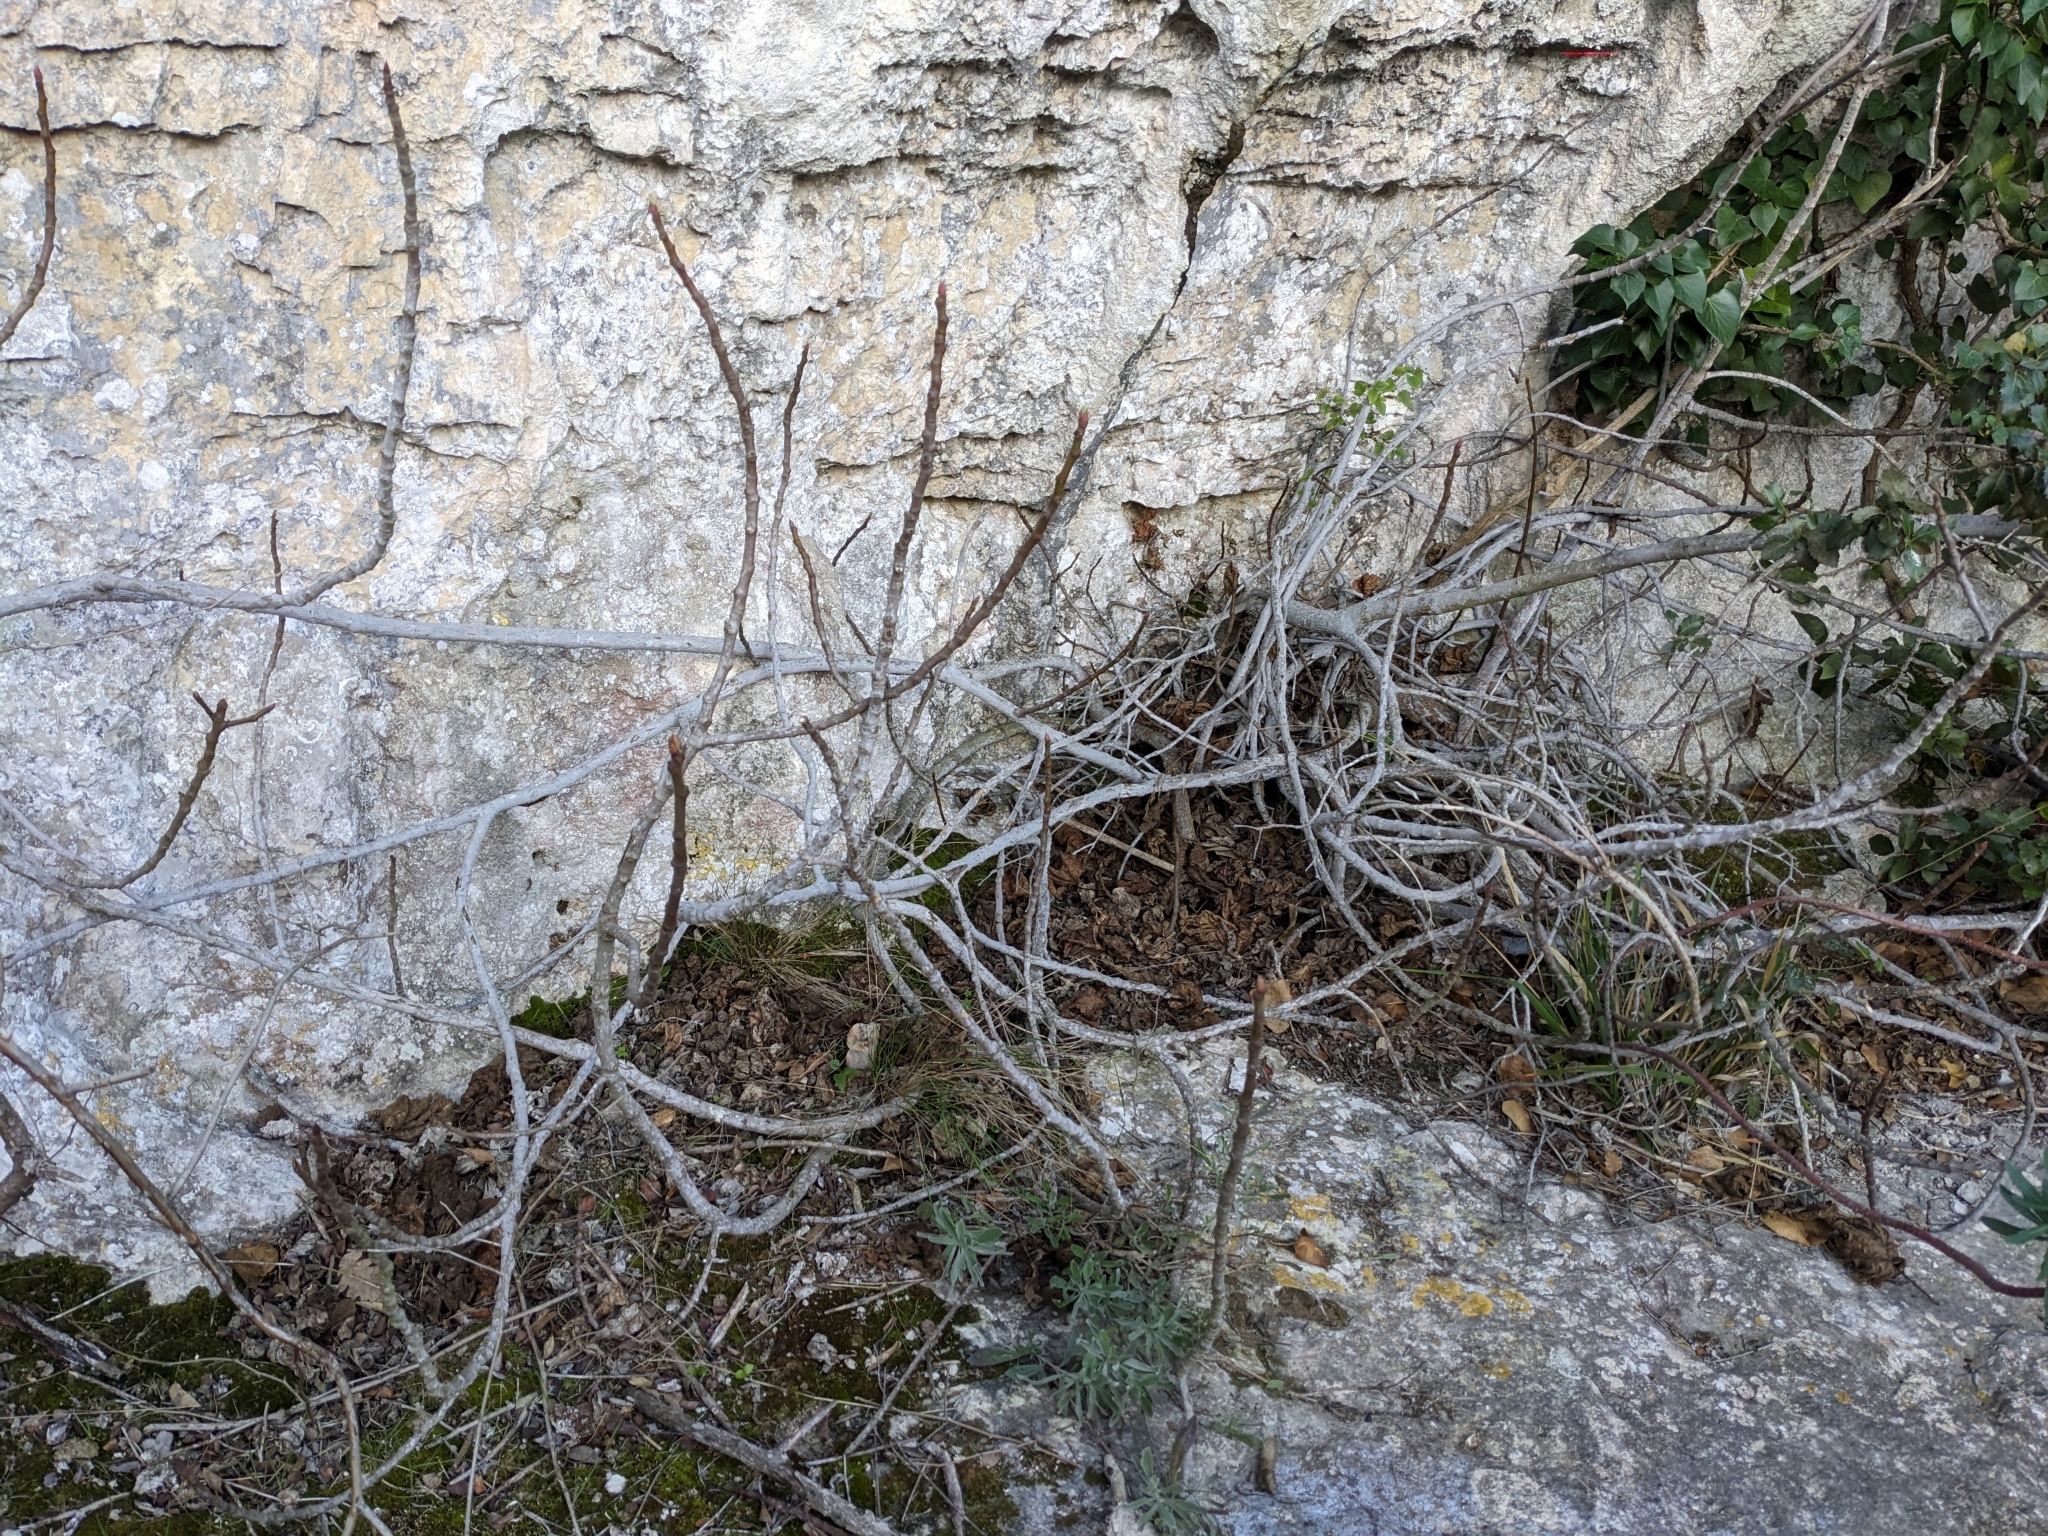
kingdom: Plantae
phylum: Tracheophyta
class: Magnoliopsida
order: Rosales
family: Moraceae
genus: Ficus
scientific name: Ficus carica
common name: Fig
